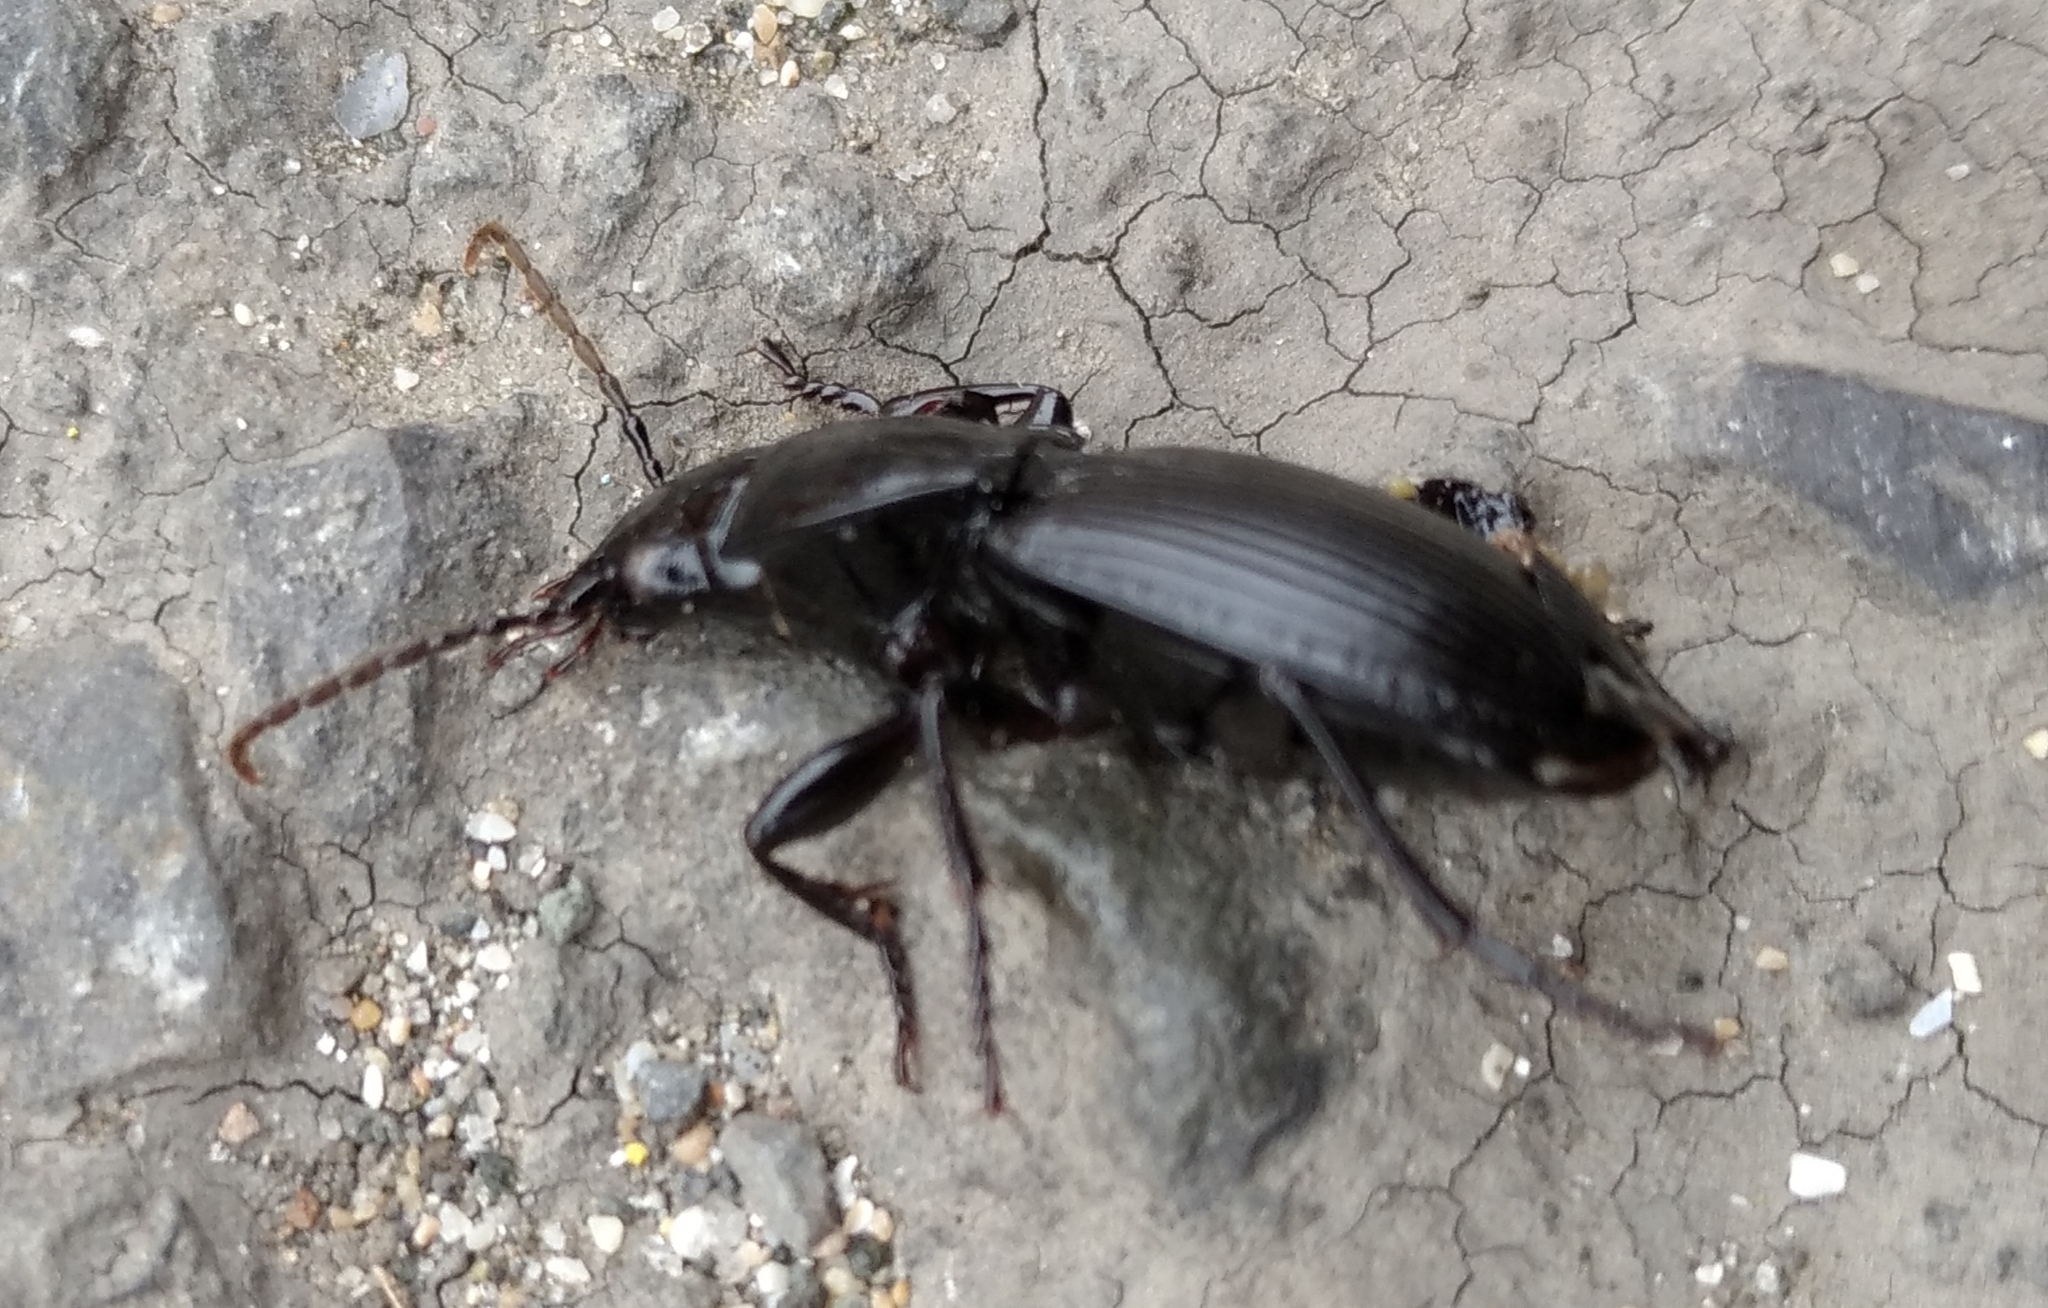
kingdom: Animalia
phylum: Arthropoda
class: Insecta
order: Coleoptera
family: Carabidae
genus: Pterostichus
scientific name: Pterostichus melas
